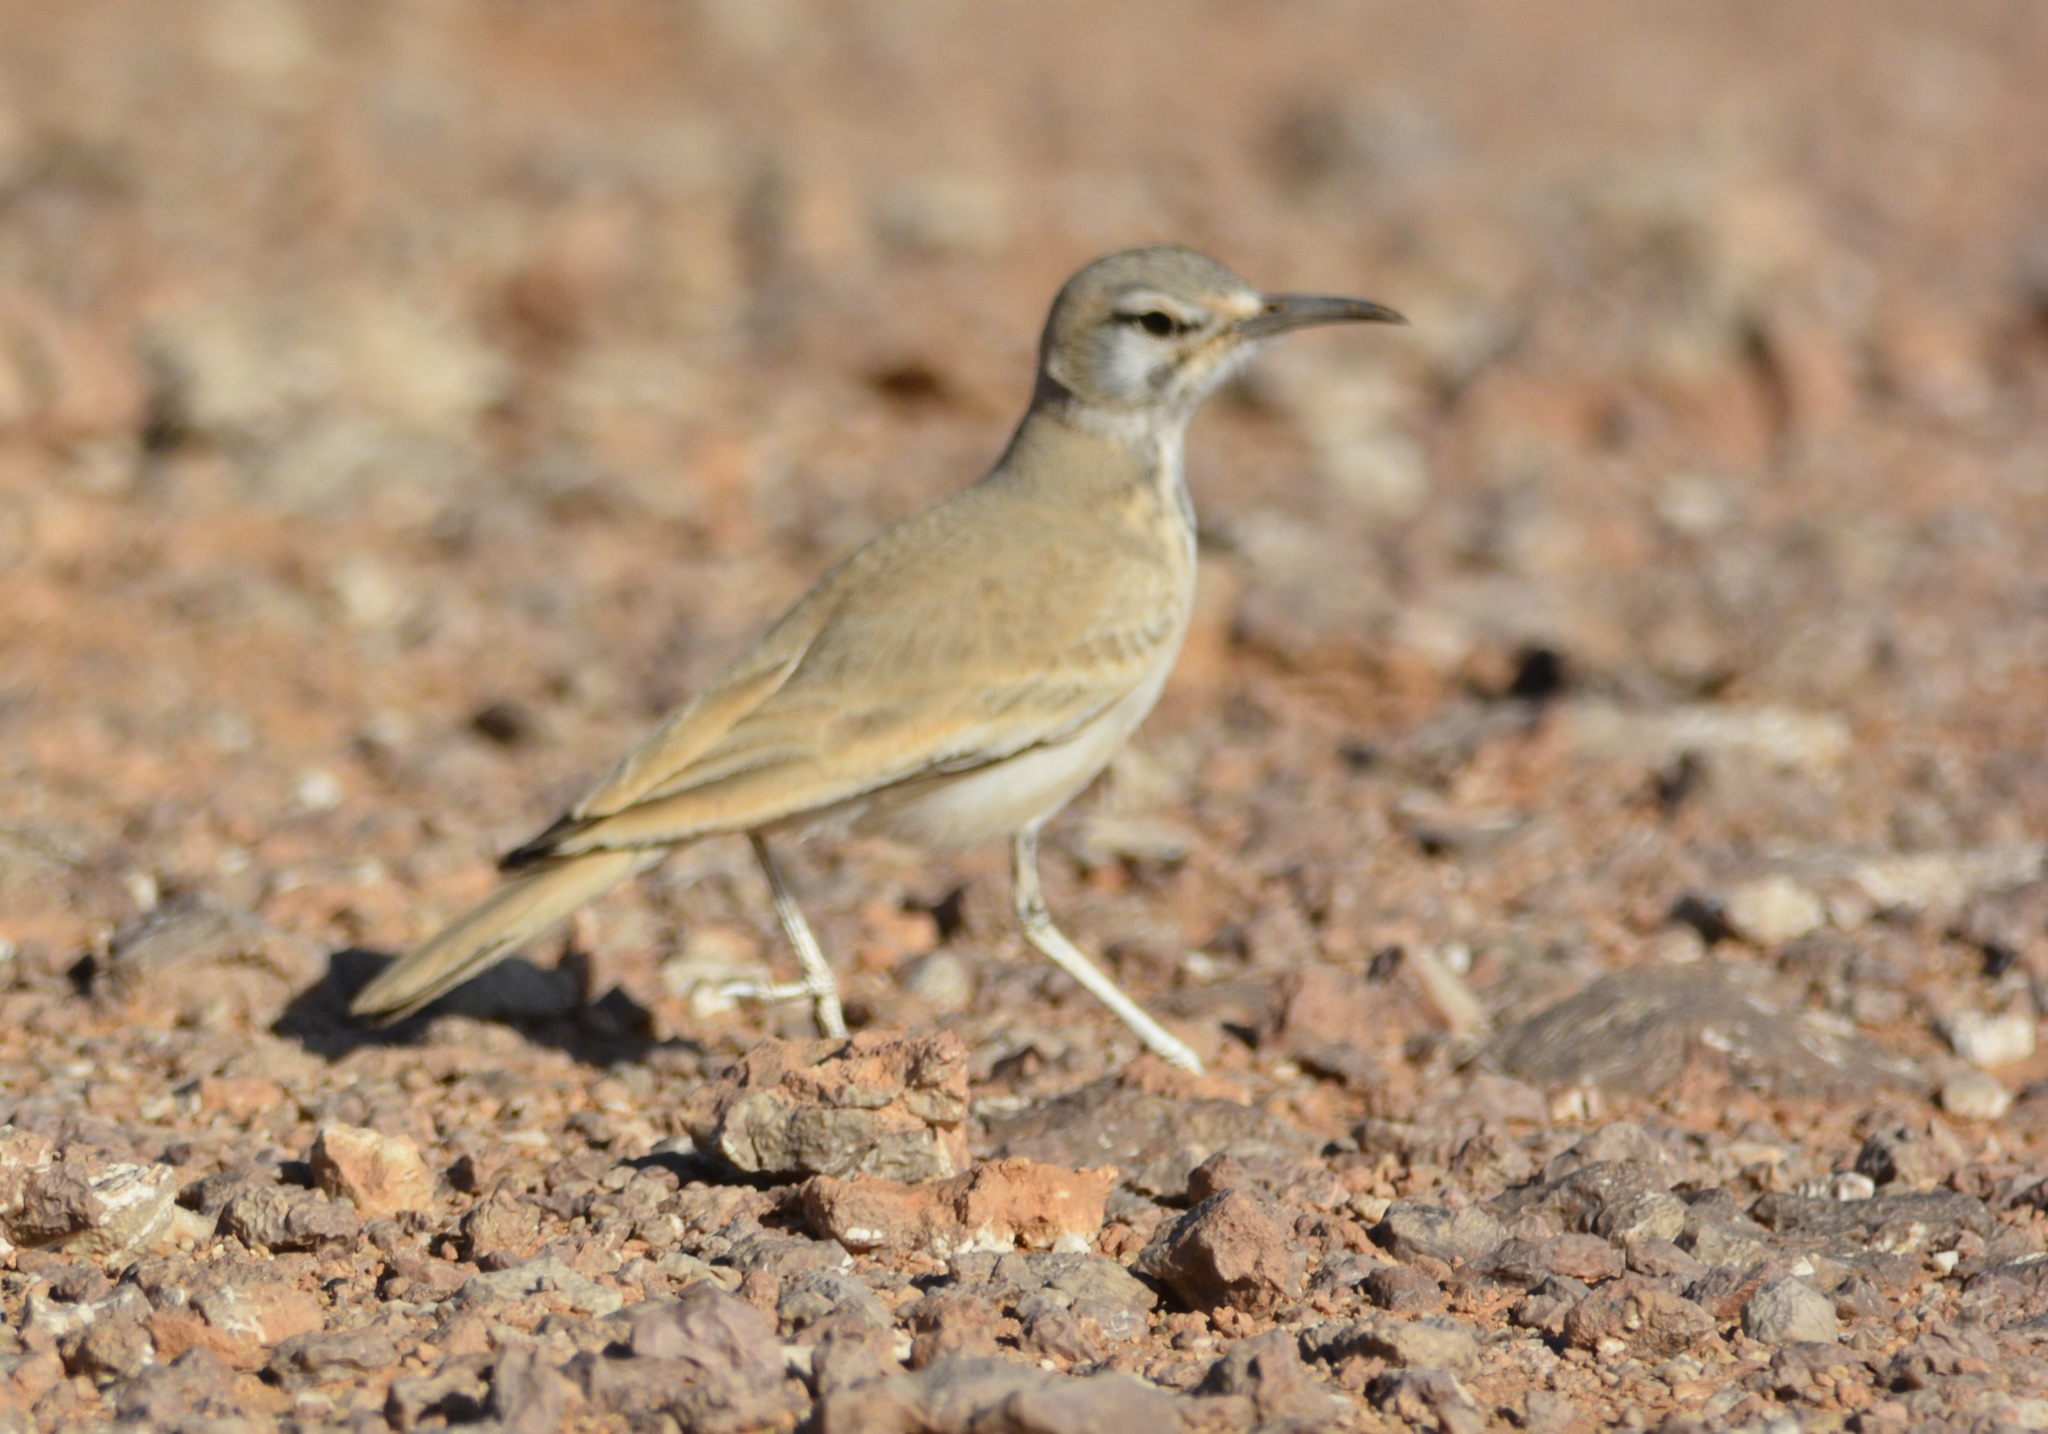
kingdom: Animalia
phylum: Chordata
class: Aves
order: Passeriformes
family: Alaudidae
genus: Alaemon
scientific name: Alaemon alaudipes
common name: Greater hoopoe-lark
